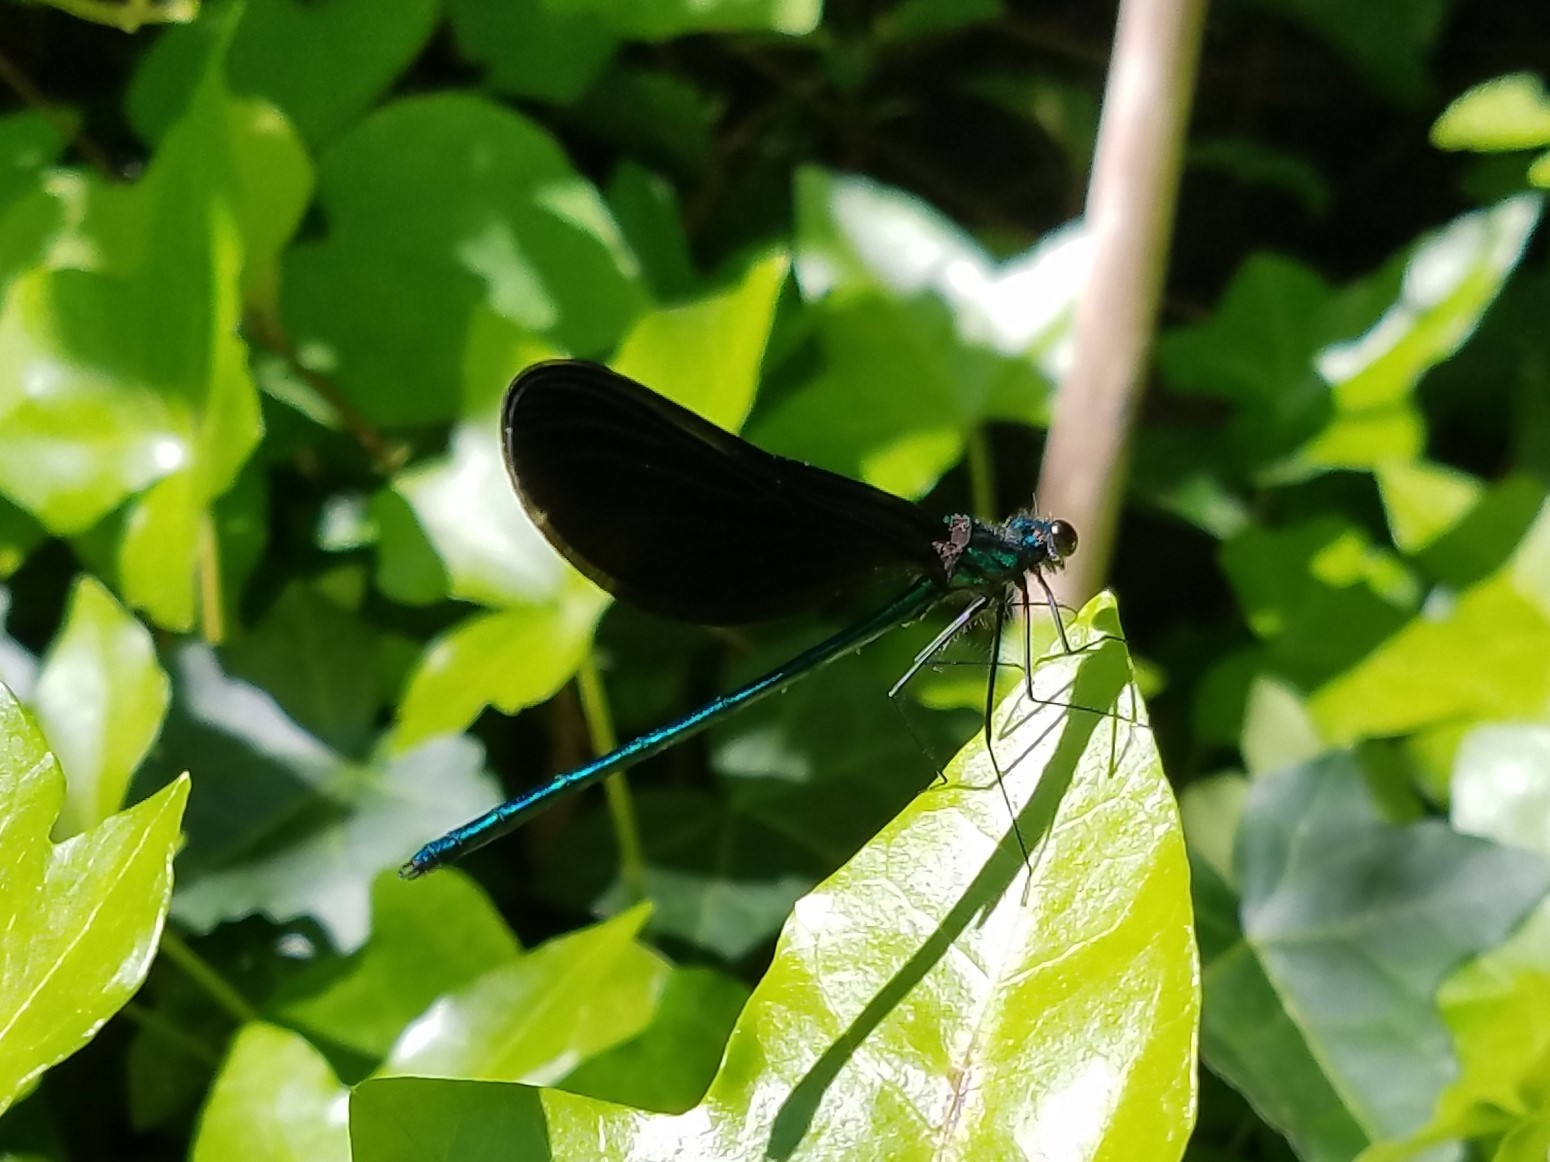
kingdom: Animalia
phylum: Arthropoda
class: Insecta
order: Odonata
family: Calopterygidae
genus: Calopteryx
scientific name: Calopteryx maculata
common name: Ebony jewelwing
